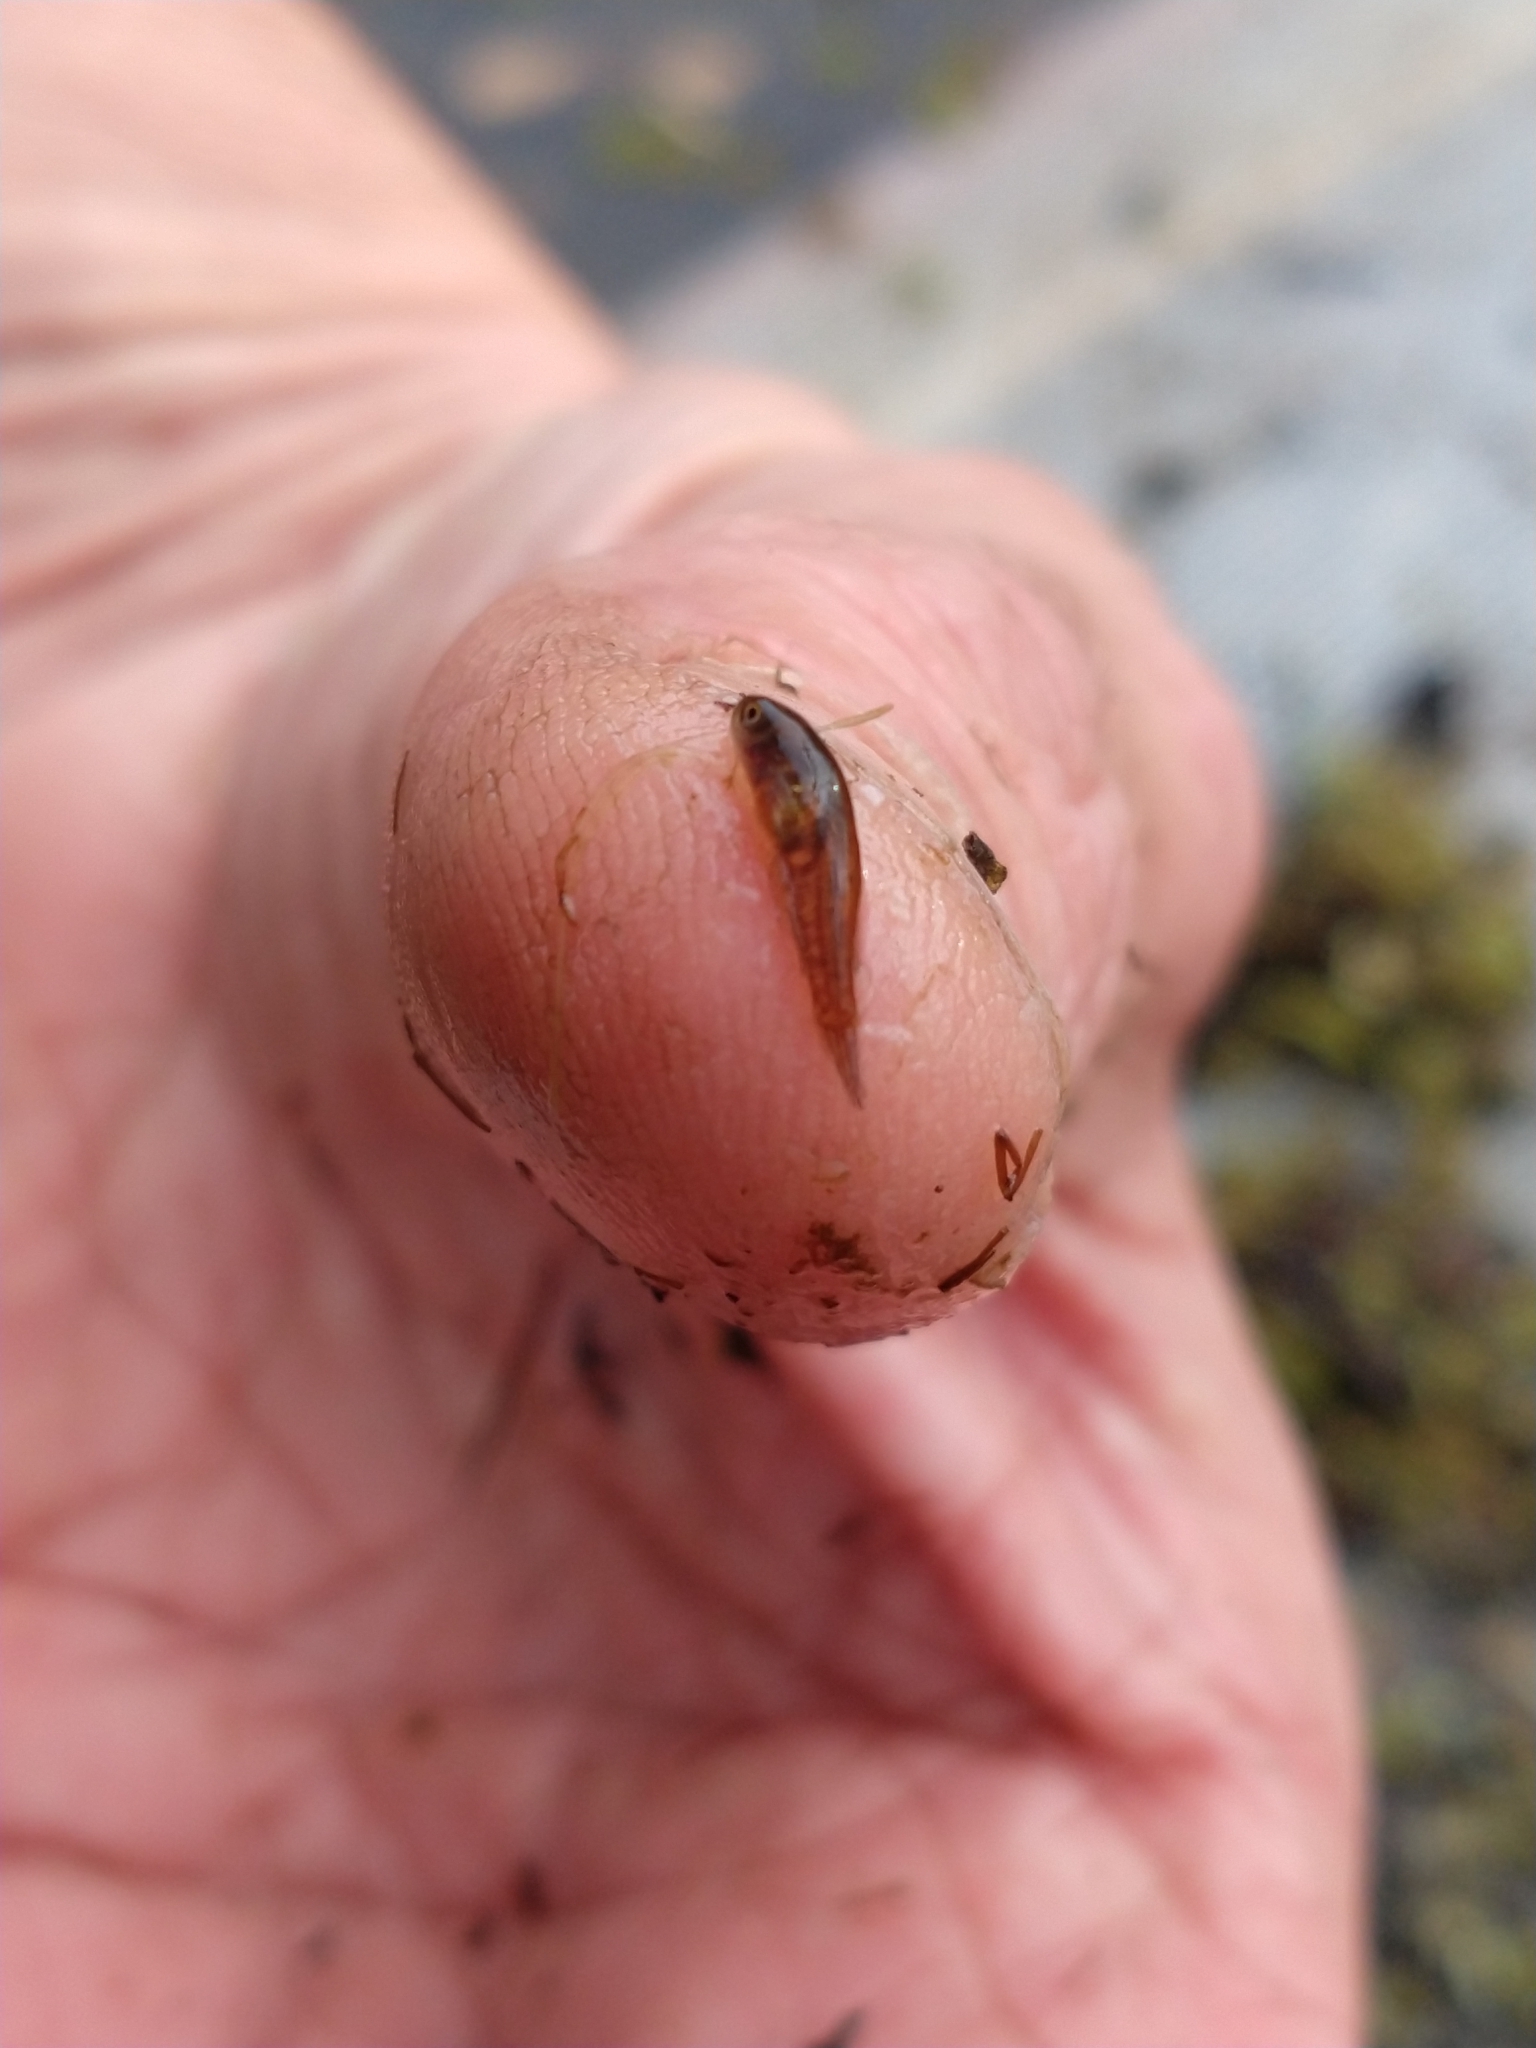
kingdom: Animalia
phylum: Chordata
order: Cyprinodontiformes
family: Rivulidae
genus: Austrolebias
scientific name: Austrolebias
